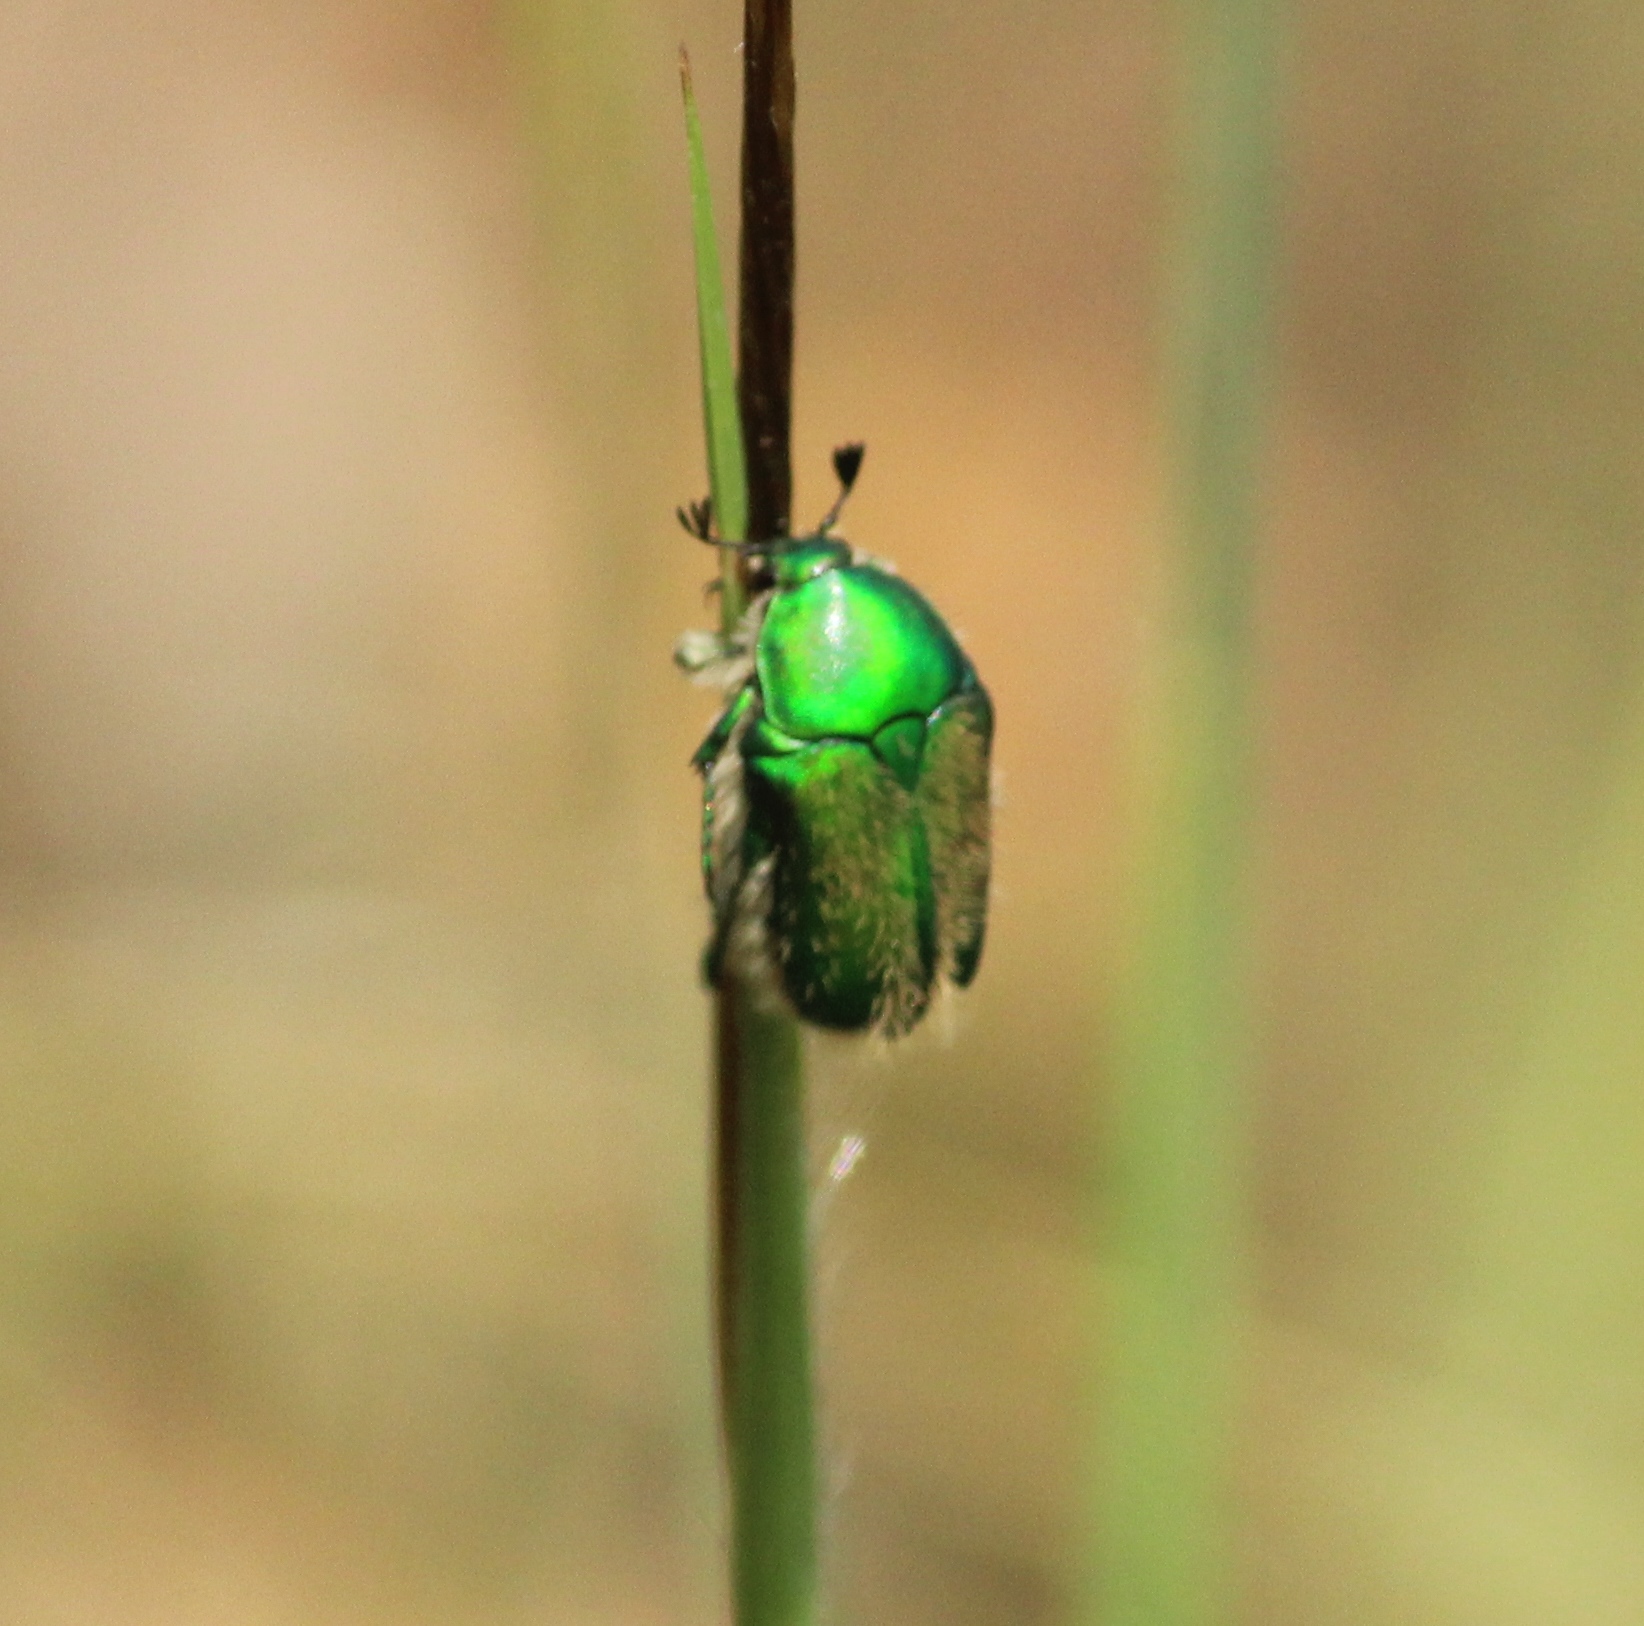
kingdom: Animalia
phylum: Arthropoda
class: Insecta
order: Coleoptera
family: Scarabaeidae
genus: Chiloloba
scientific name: Chiloloba acuta
